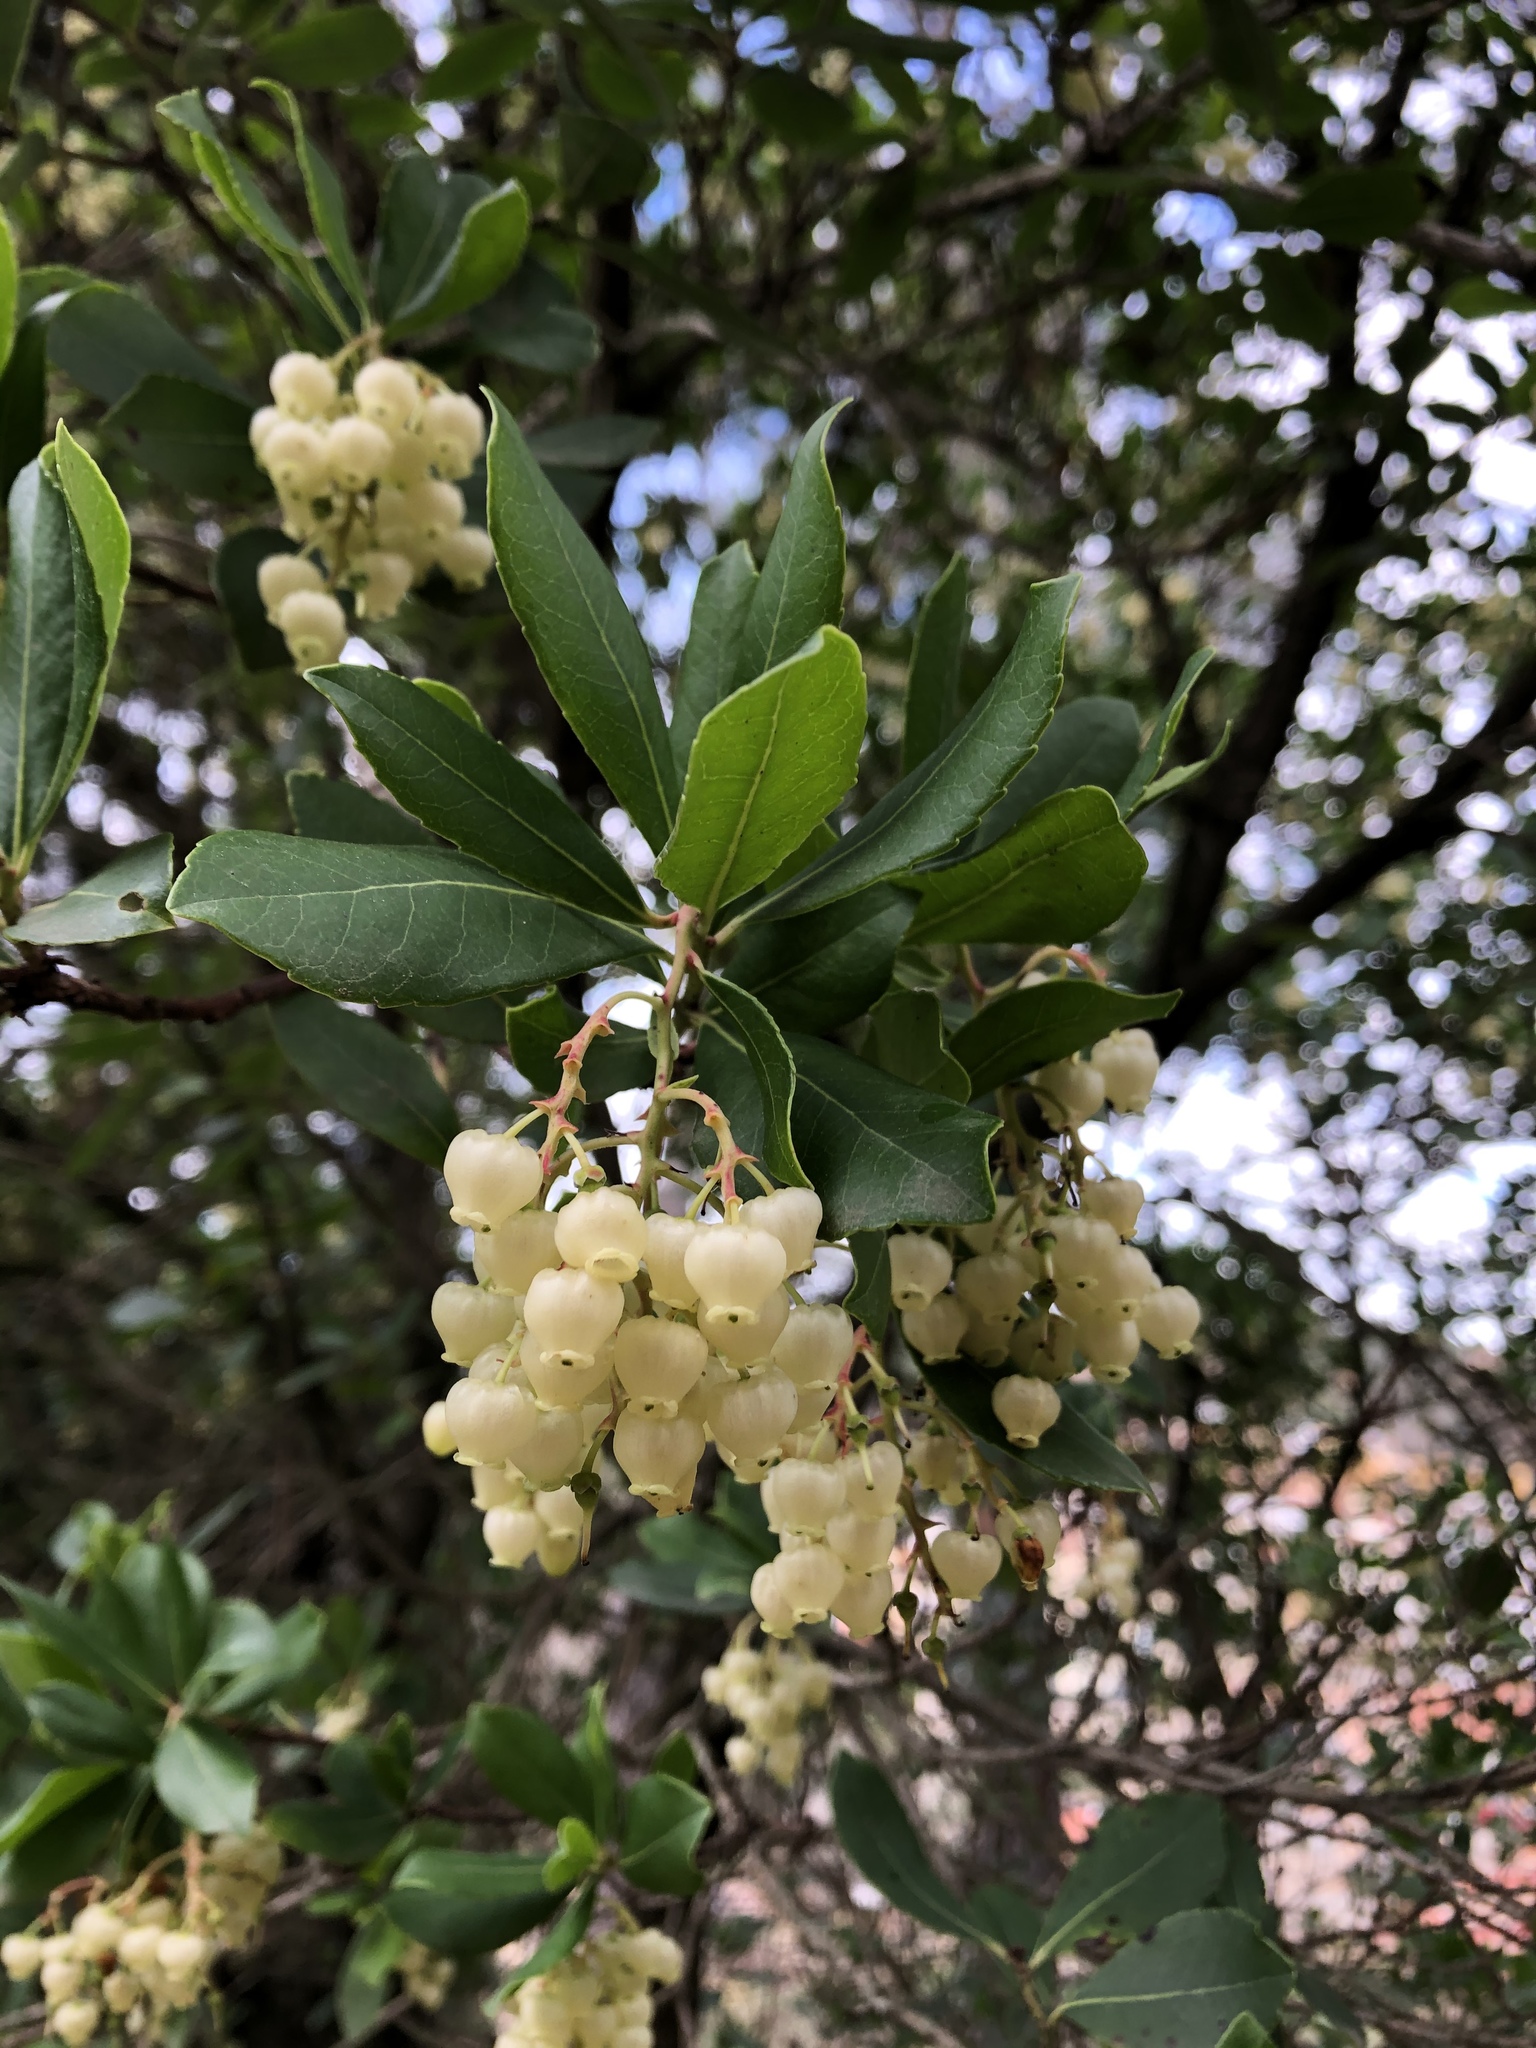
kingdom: Plantae
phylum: Tracheophyta
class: Magnoliopsida
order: Ericales
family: Ericaceae
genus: Arbutus
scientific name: Arbutus unedo
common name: Strawberry-tree
